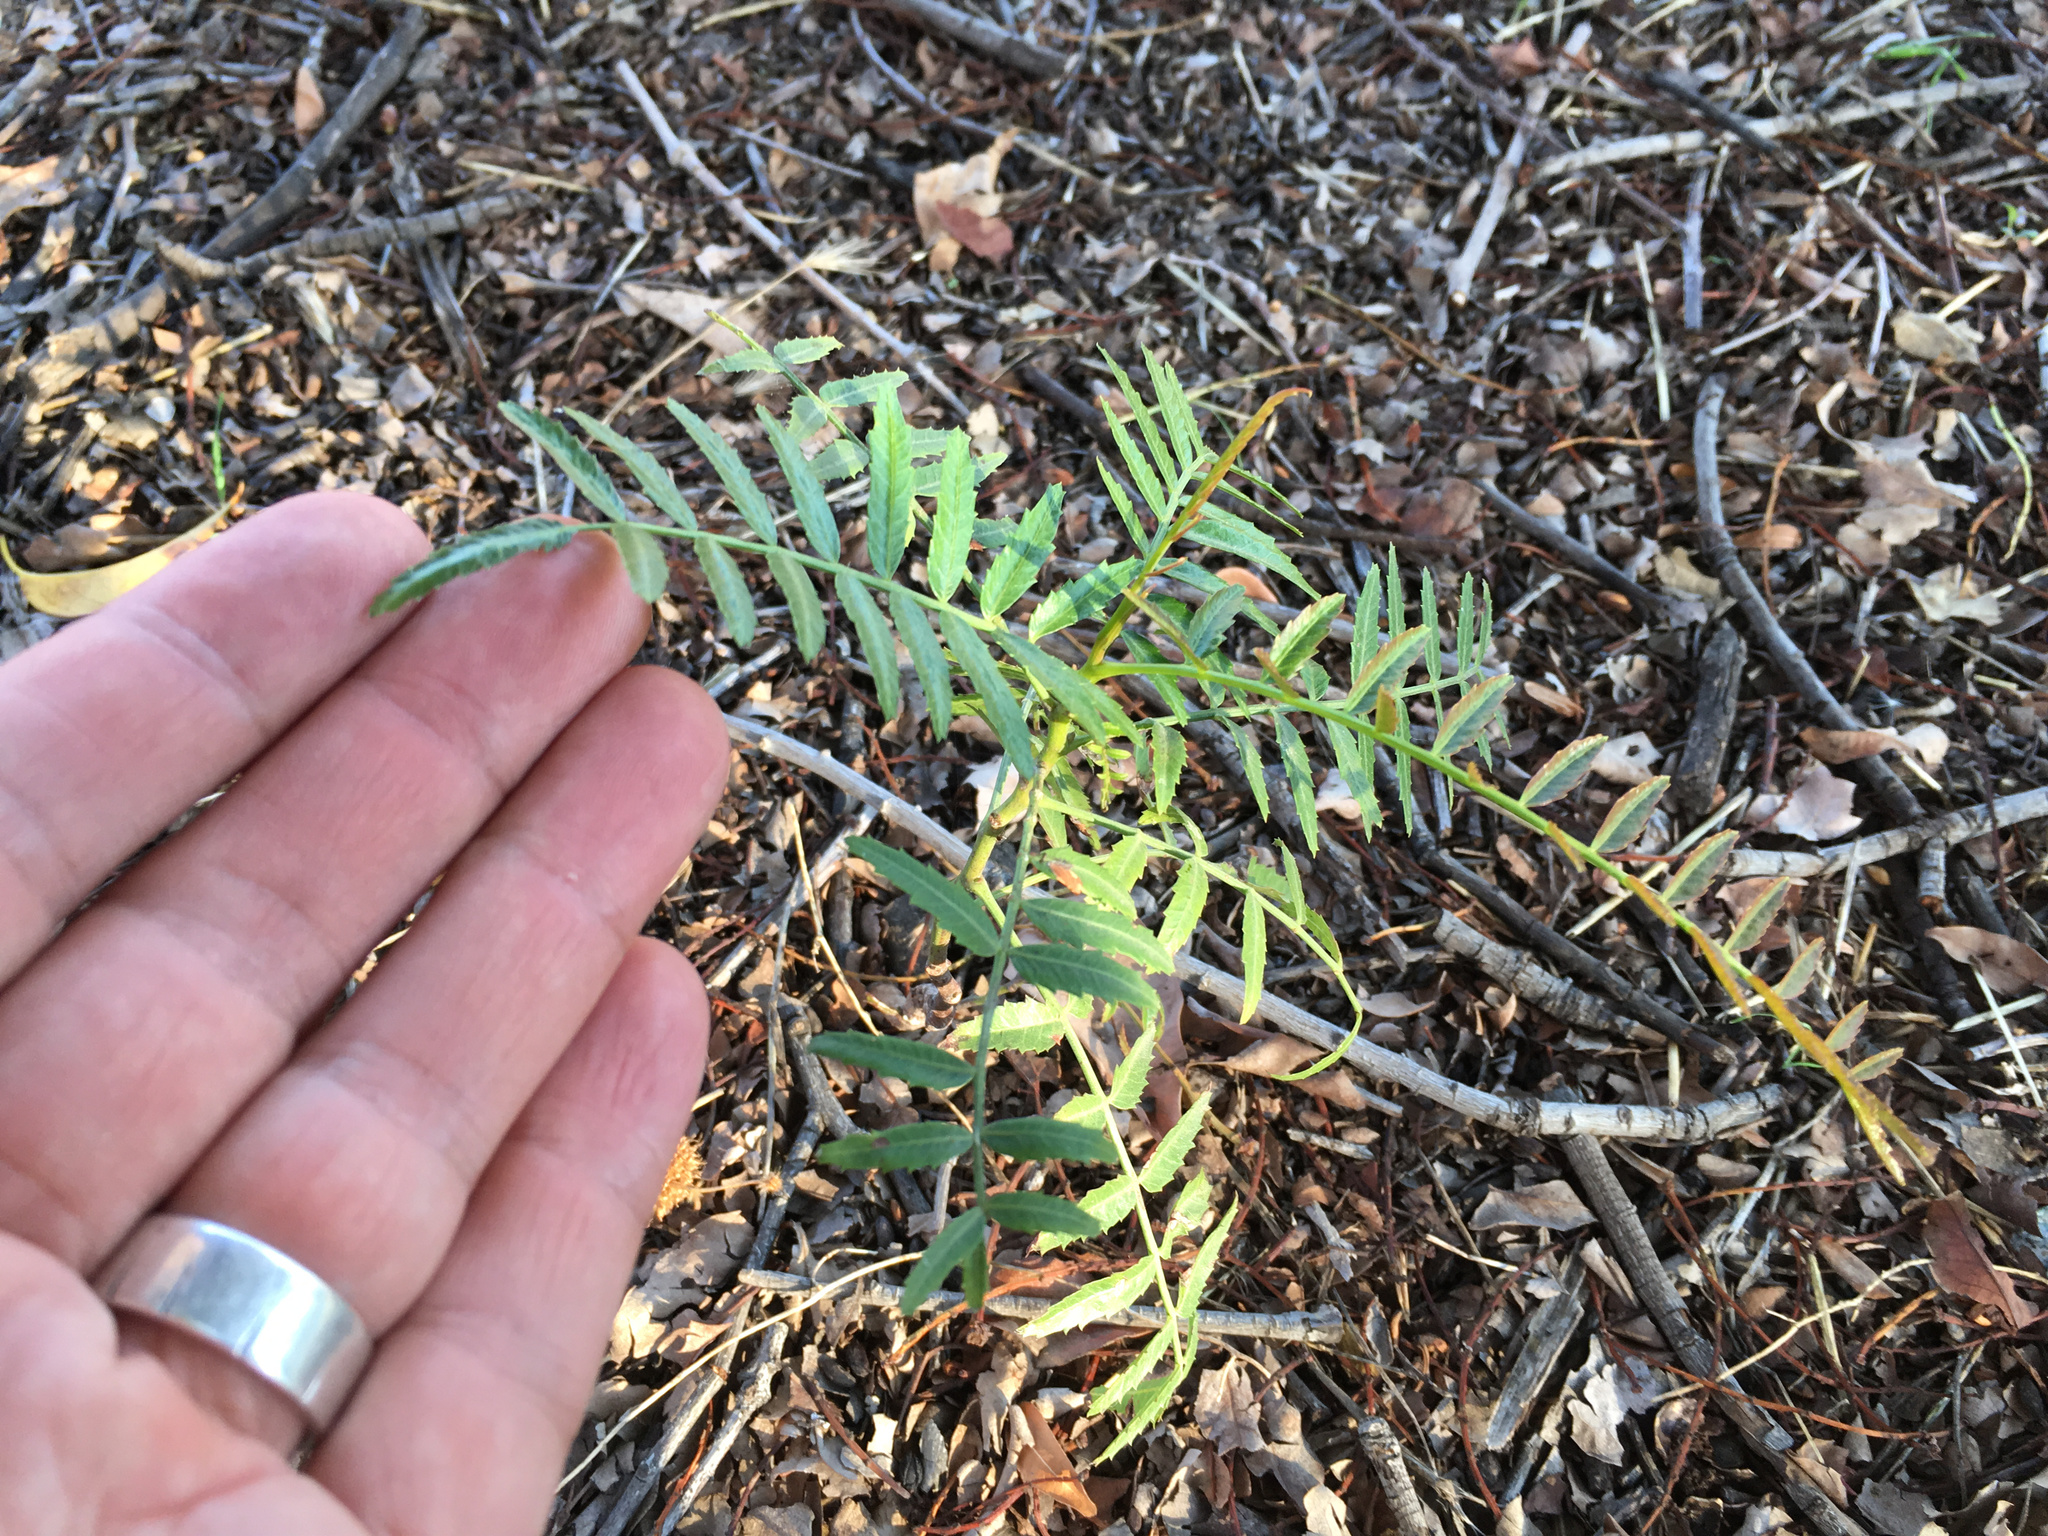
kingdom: Plantae
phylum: Tracheophyta
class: Magnoliopsida
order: Sapindales
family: Anacardiaceae
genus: Schinus
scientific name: Schinus molle
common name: Peruvian peppertree
